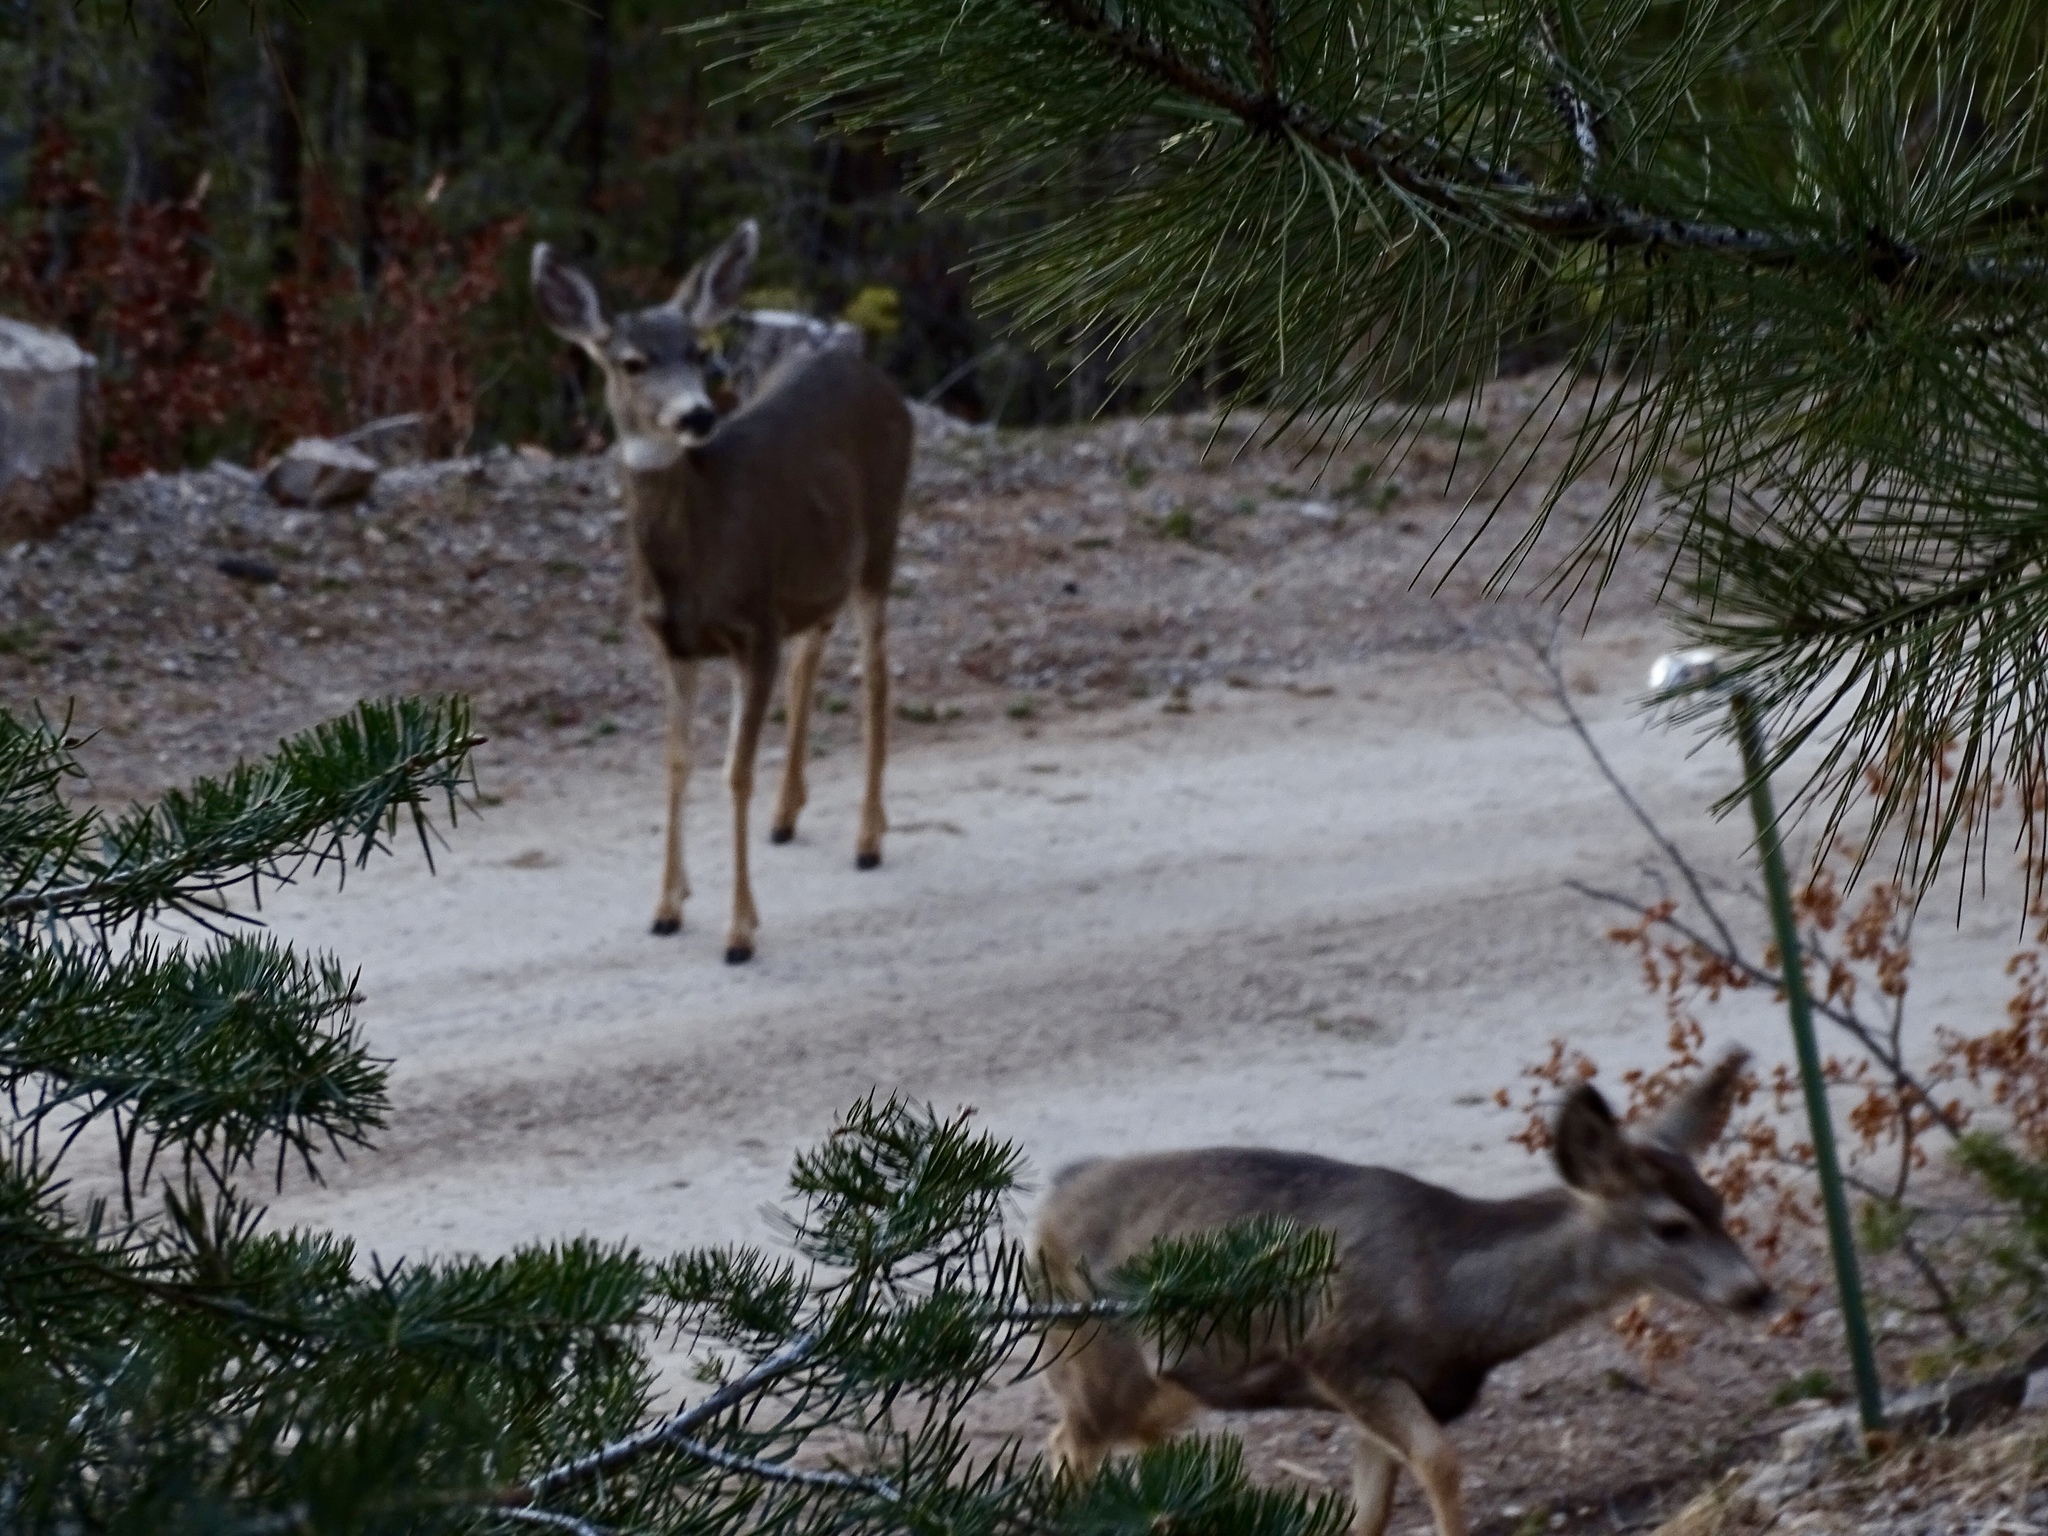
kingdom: Animalia
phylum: Chordata
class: Mammalia
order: Artiodactyla
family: Cervidae
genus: Odocoileus
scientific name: Odocoileus hemionus
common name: Mule deer
